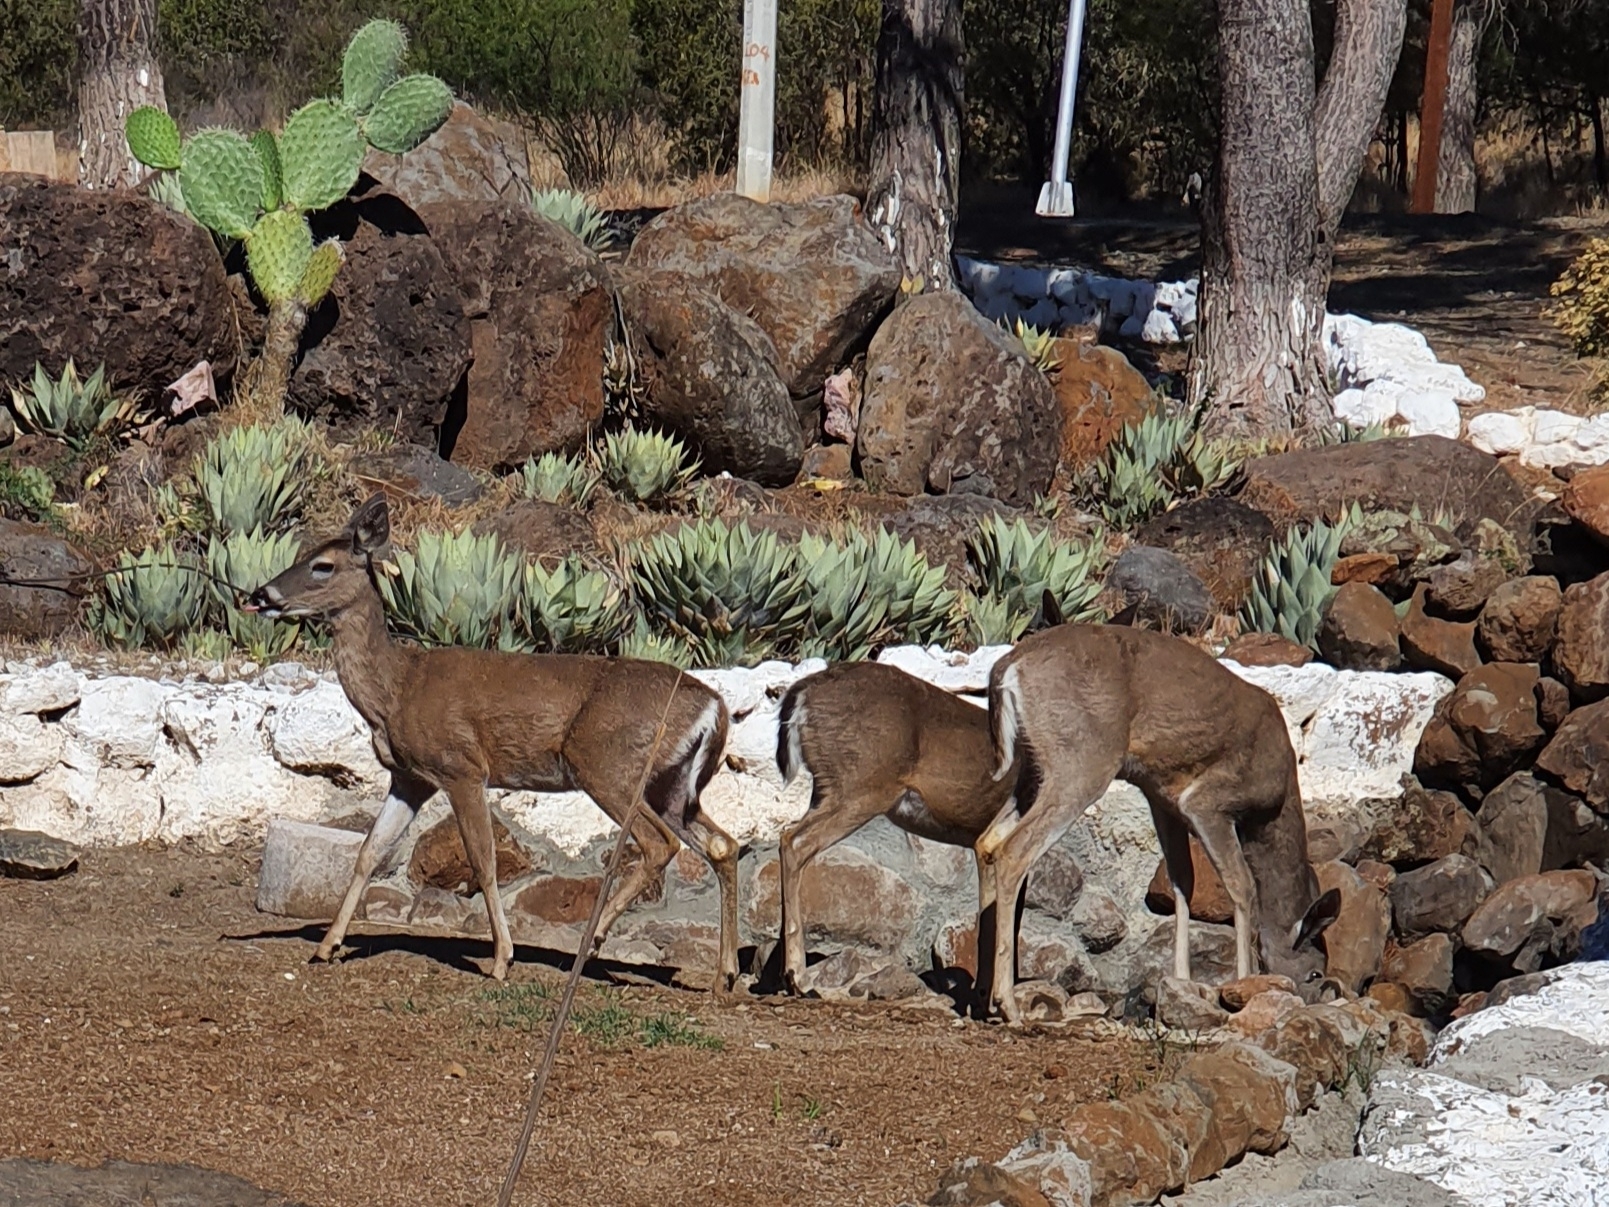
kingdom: Animalia
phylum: Chordata
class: Mammalia
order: Artiodactyla
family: Cervidae
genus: Odocoileus
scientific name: Odocoileus virginianus
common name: White-tailed deer
